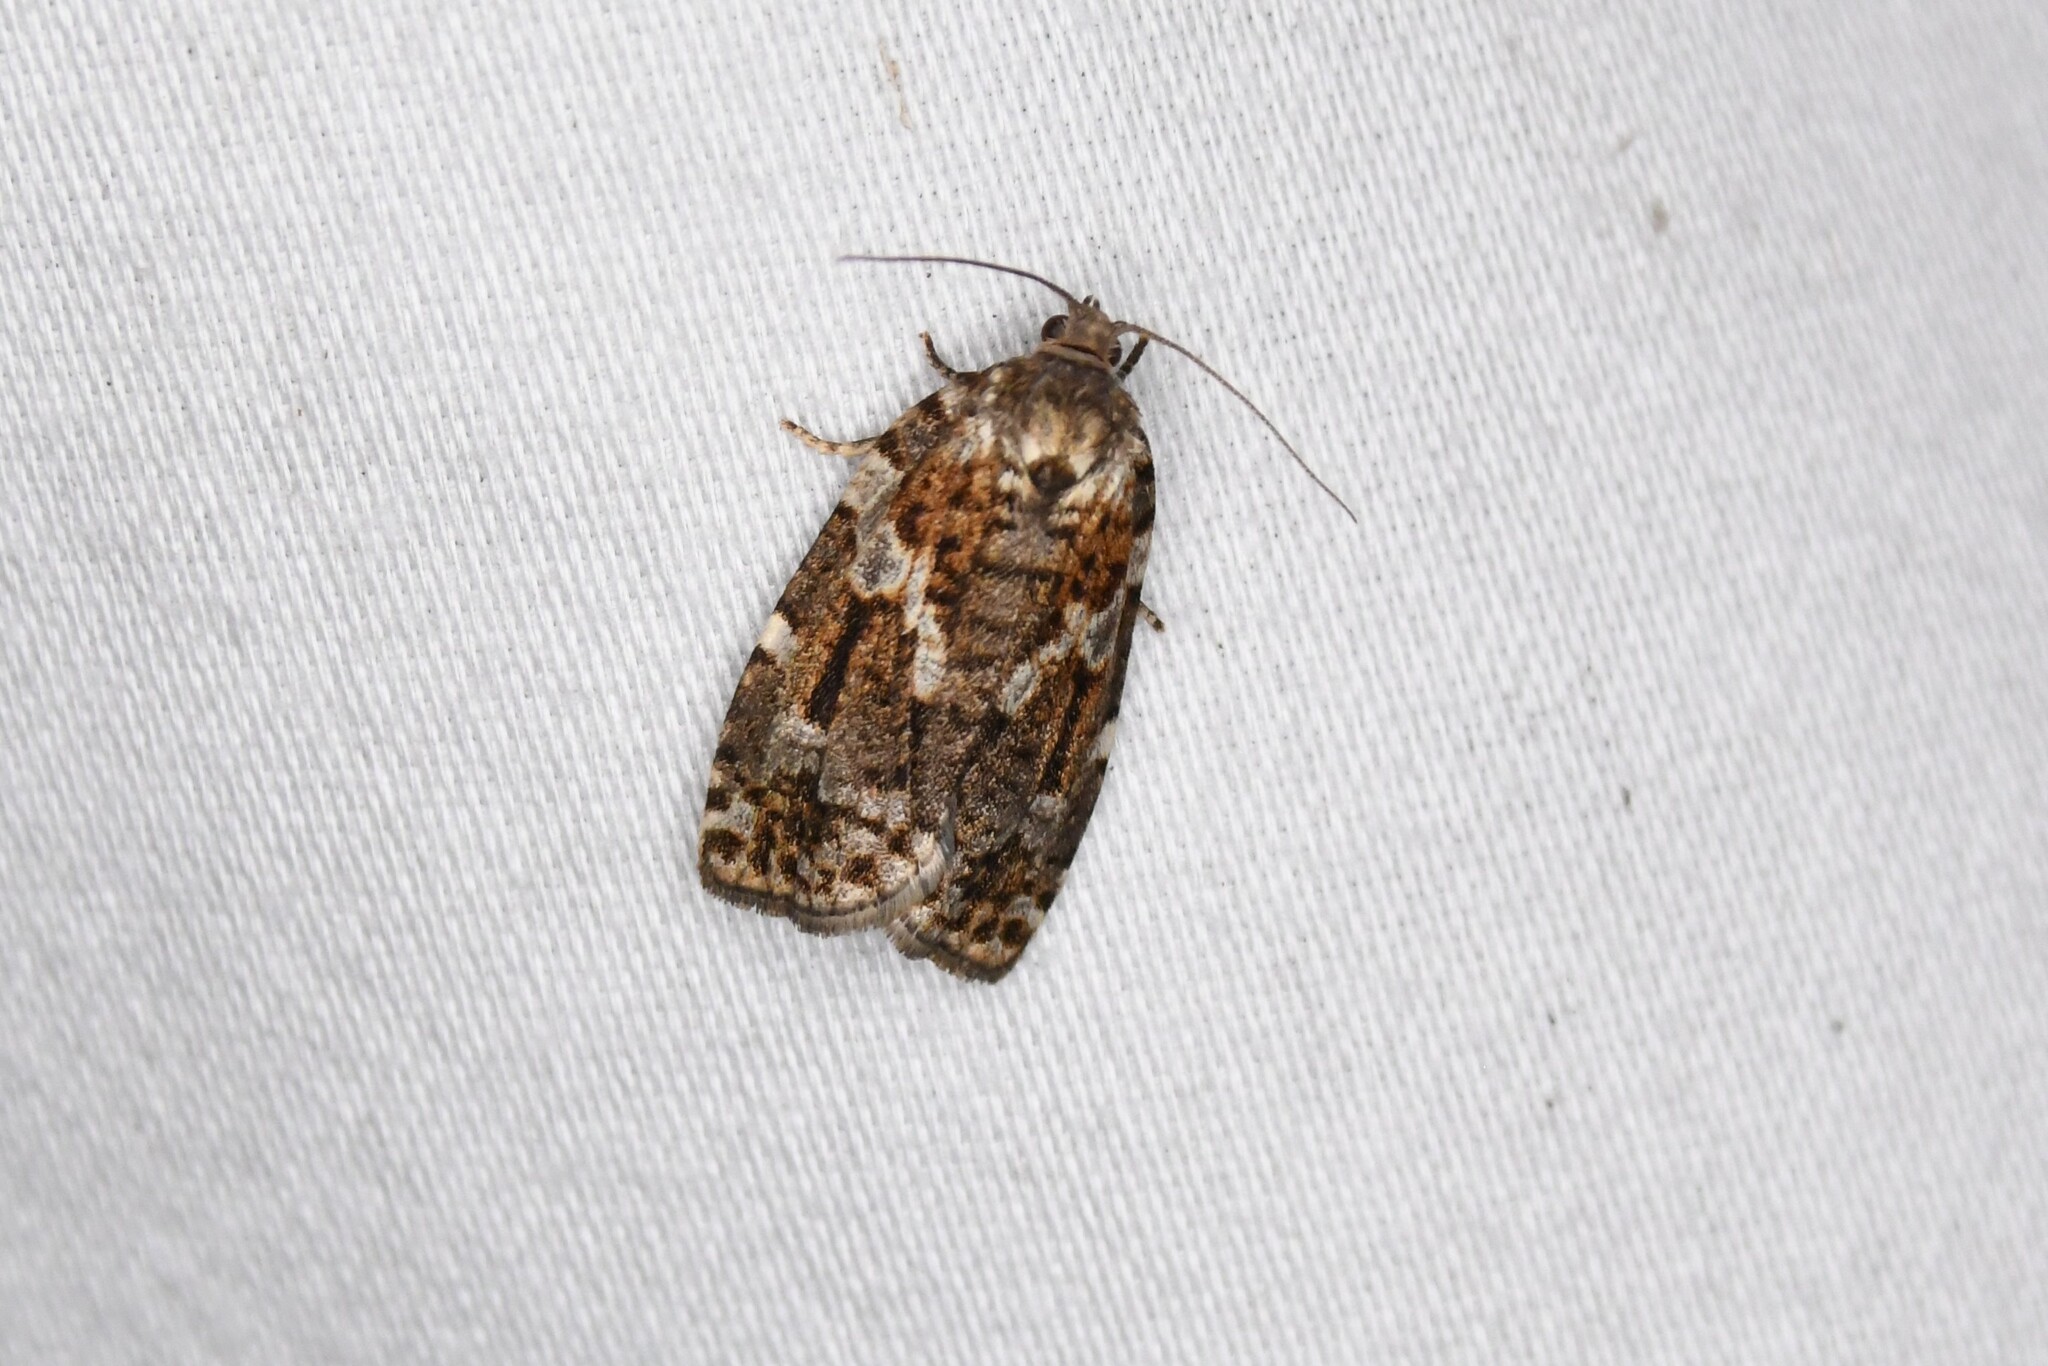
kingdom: Animalia
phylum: Arthropoda
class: Insecta
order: Lepidoptera
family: Tortricidae
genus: Choristoneura
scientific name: Choristoneura fumiferana
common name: Spruce budworm
